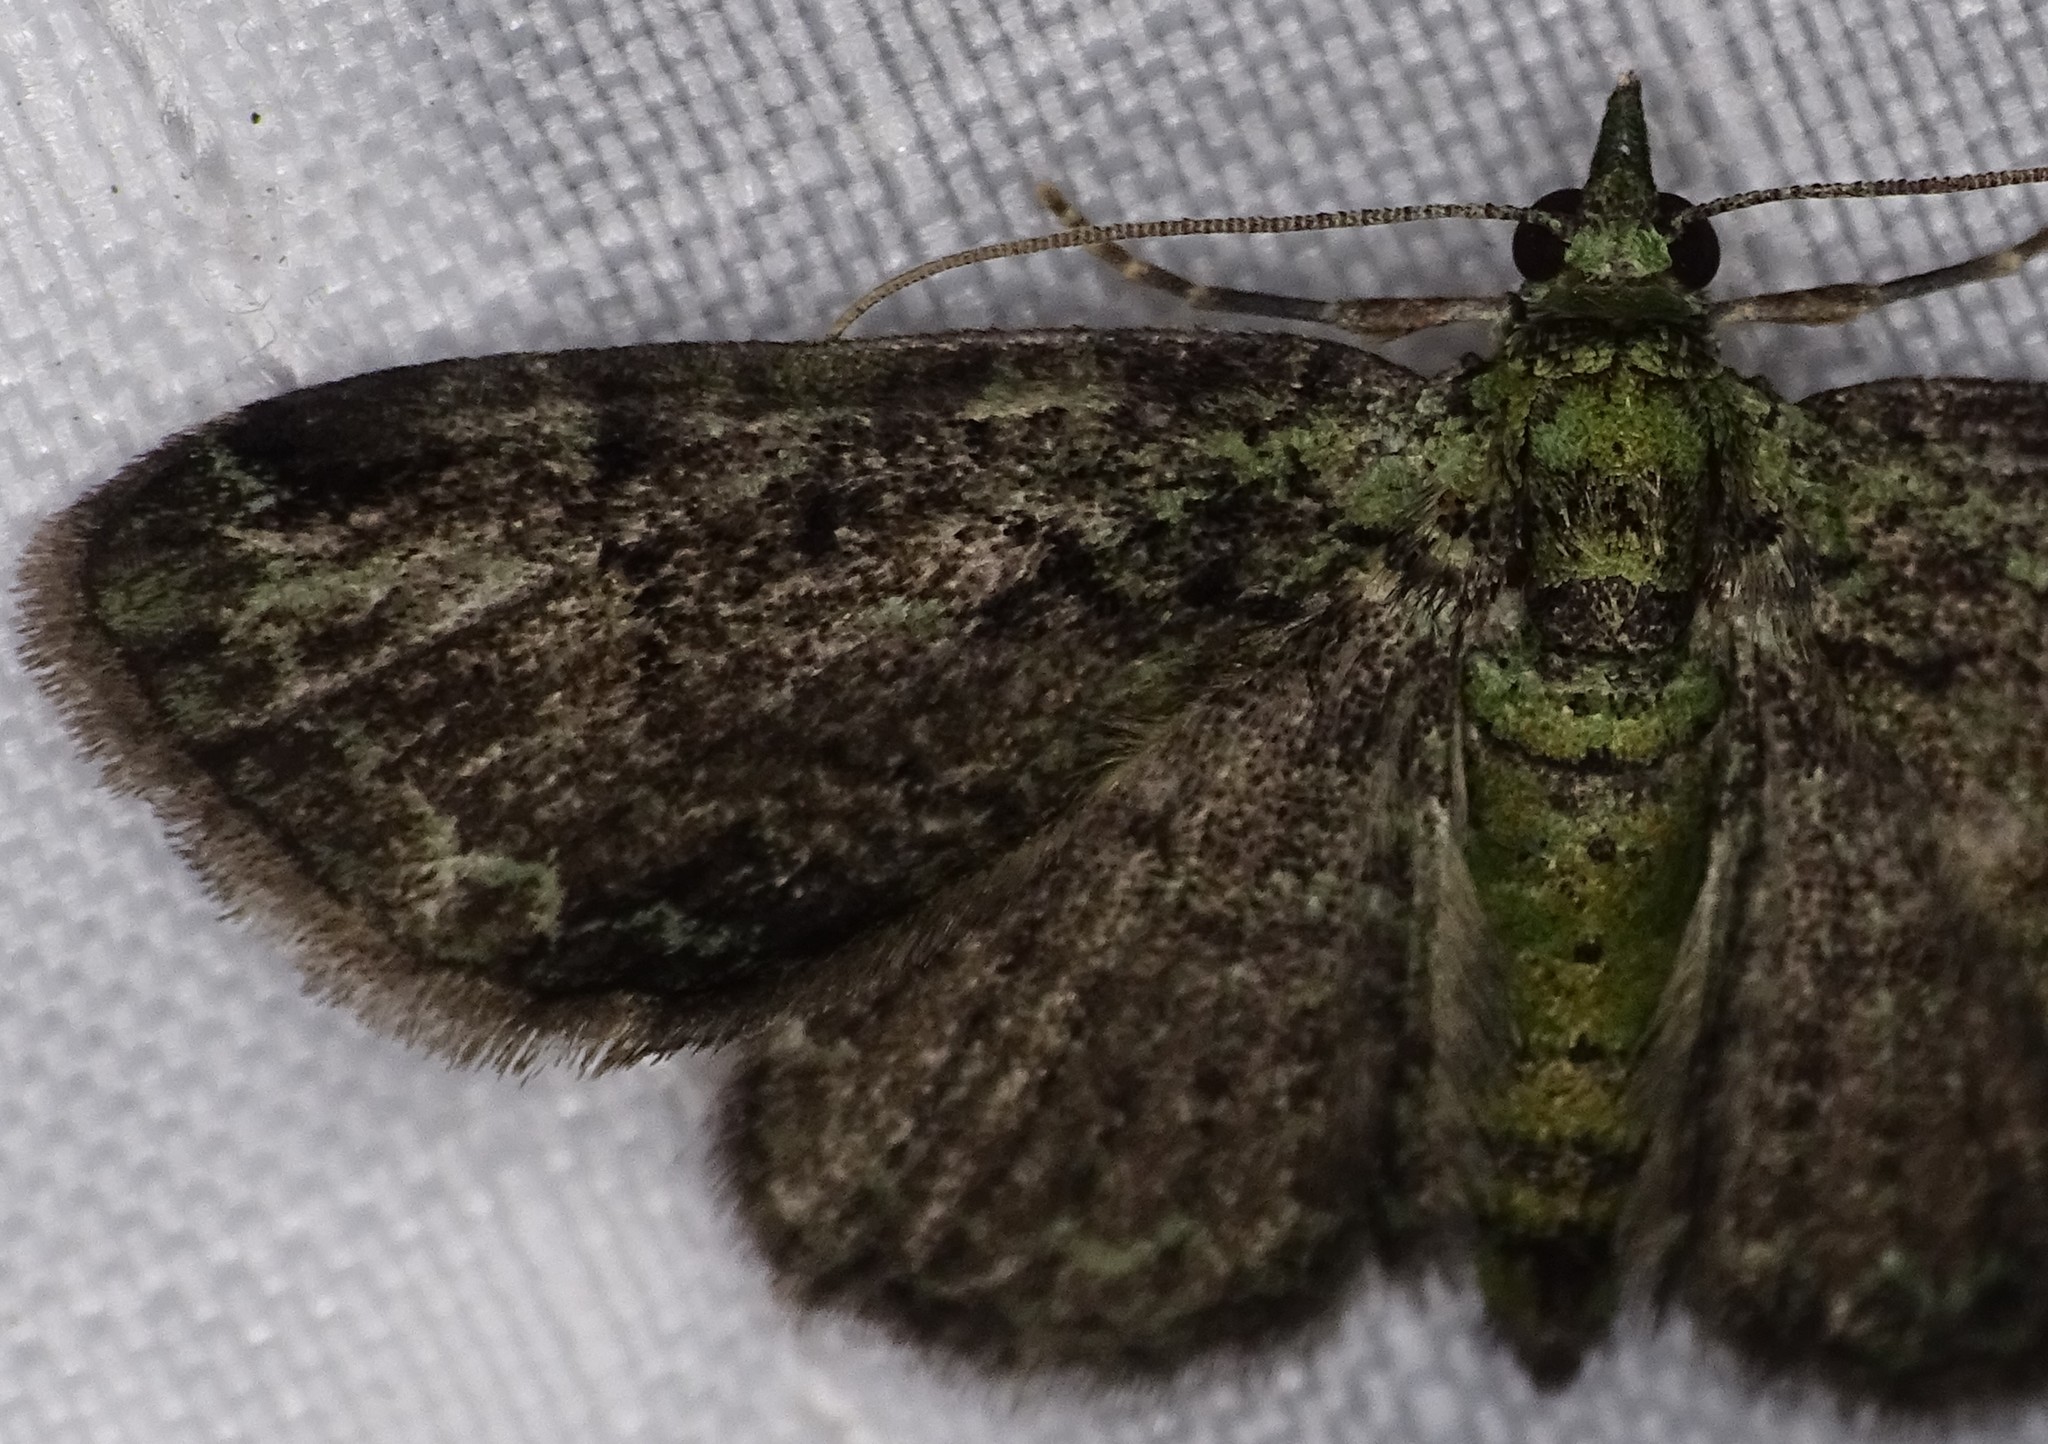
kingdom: Animalia
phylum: Arthropoda
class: Insecta
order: Lepidoptera
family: Geometridae
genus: Pasiphila
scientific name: Pasiphila rectangulata
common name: Green pug
